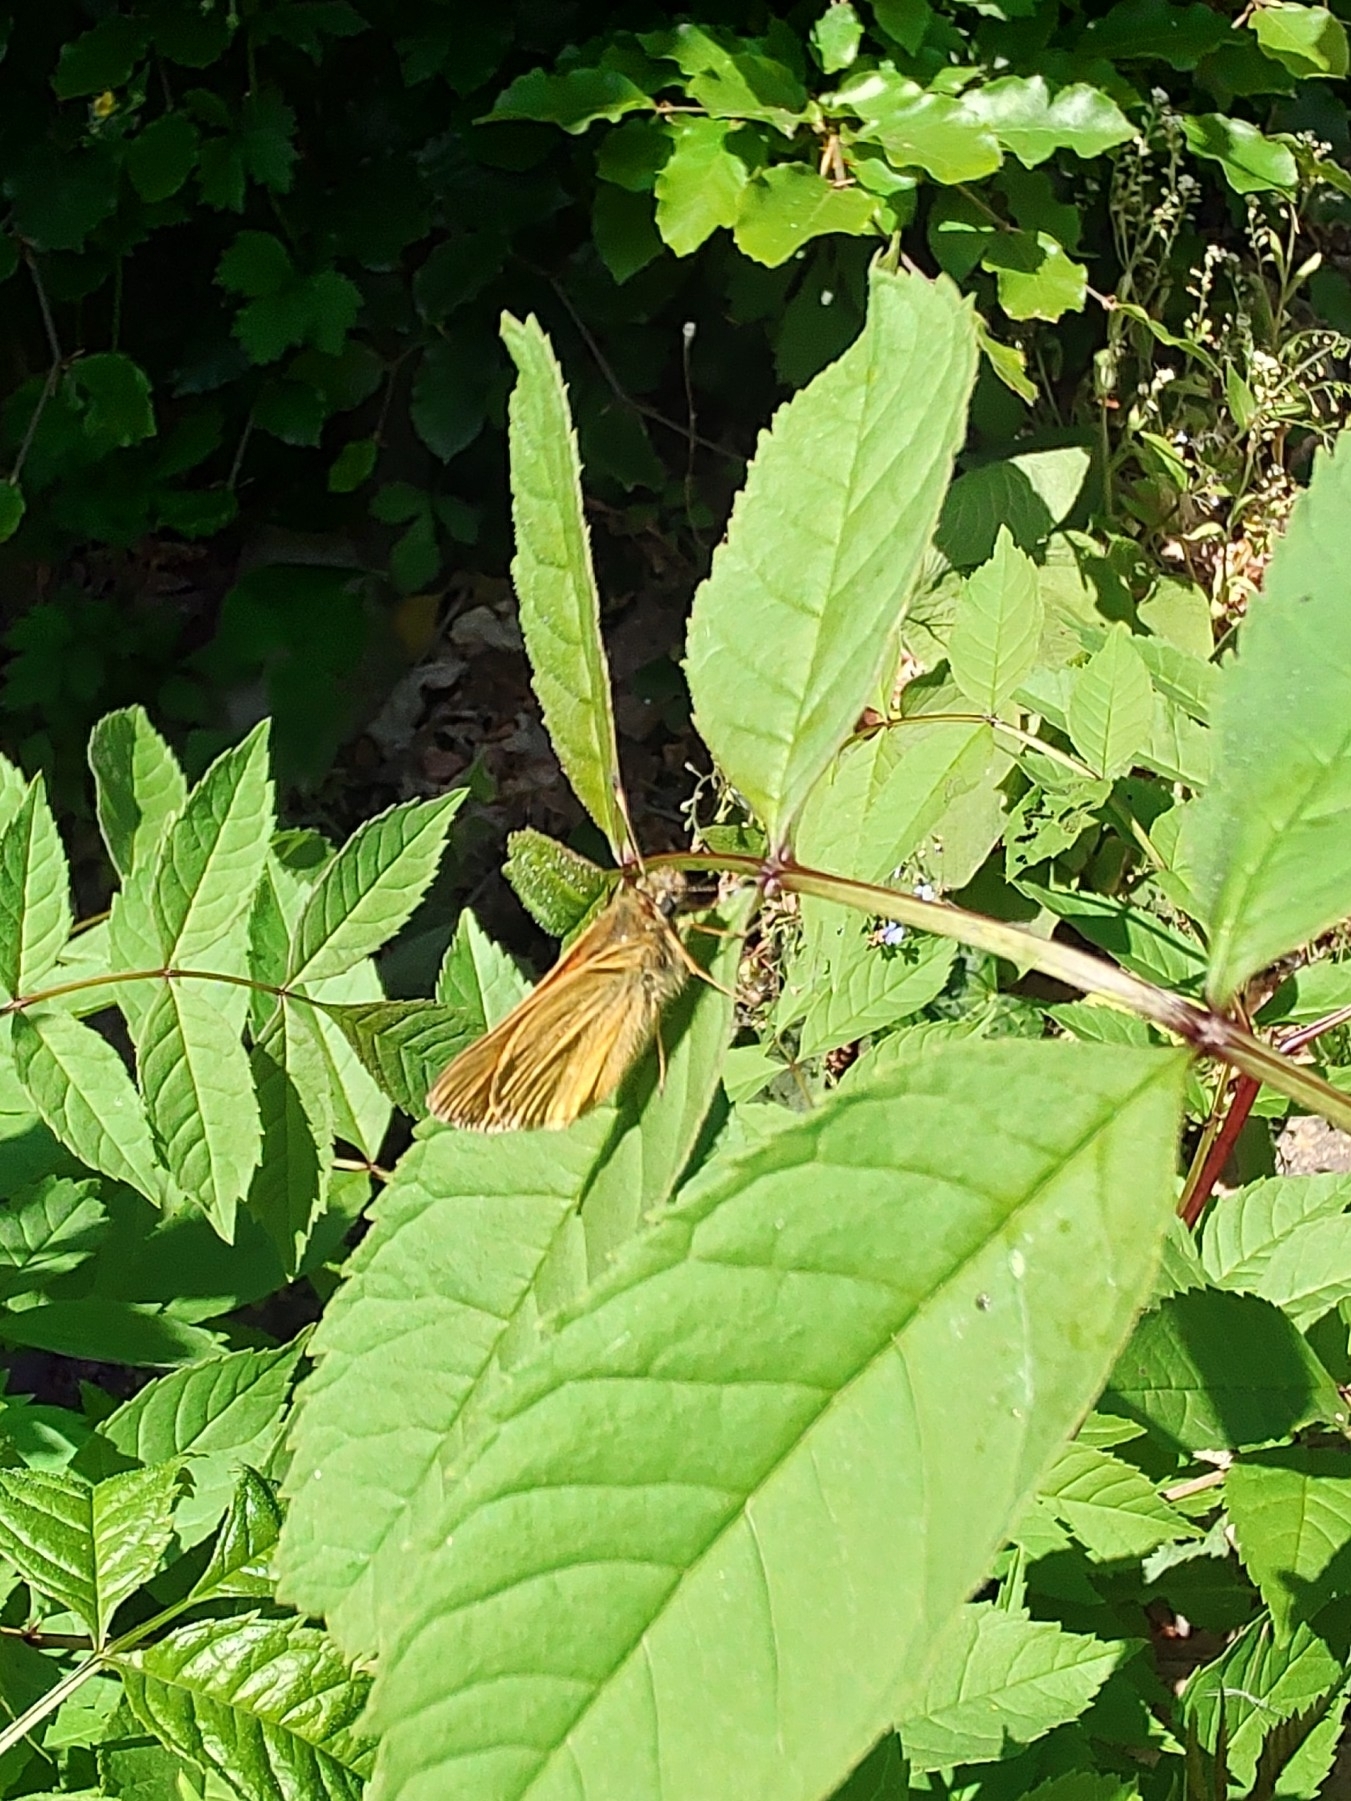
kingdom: Animalia
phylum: Arthropoda
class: Insecta
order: Lepidoptera
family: Hesperiidae
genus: Ochlodes
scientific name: Ochlodes venata
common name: Large skipper
